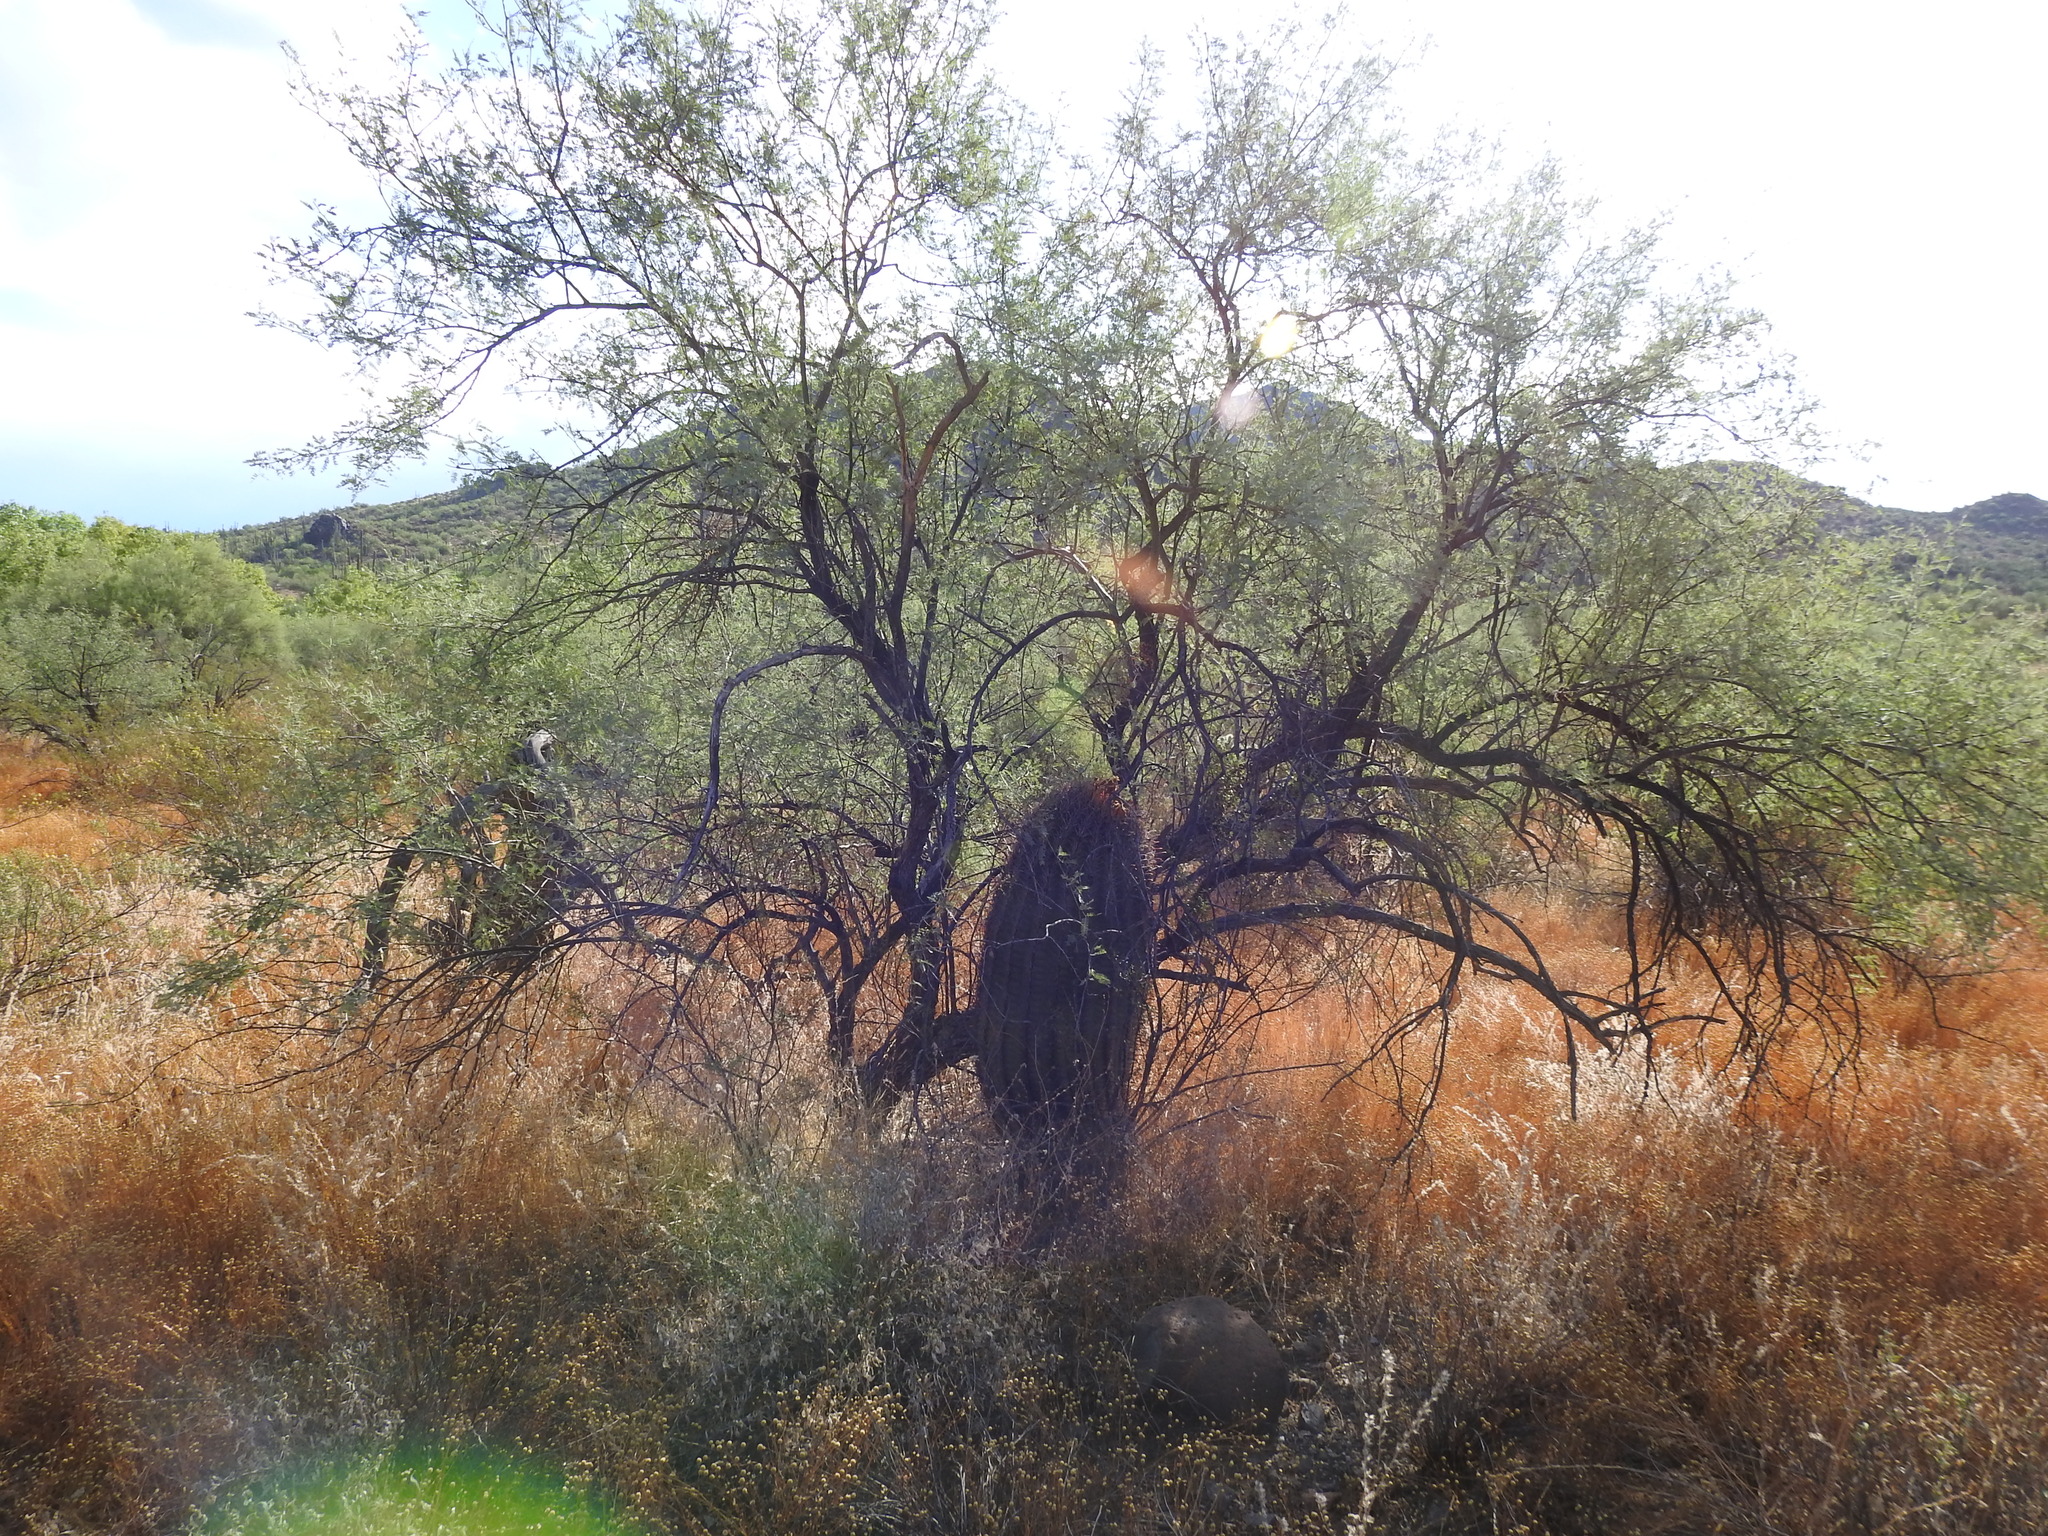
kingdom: Plantae
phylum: Tracheophyta
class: Magnoliopsida
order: Caryophyllales
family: Cactaceae
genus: Ferocactus
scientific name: Ferocactus cylindraceus
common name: California barrel cactus
